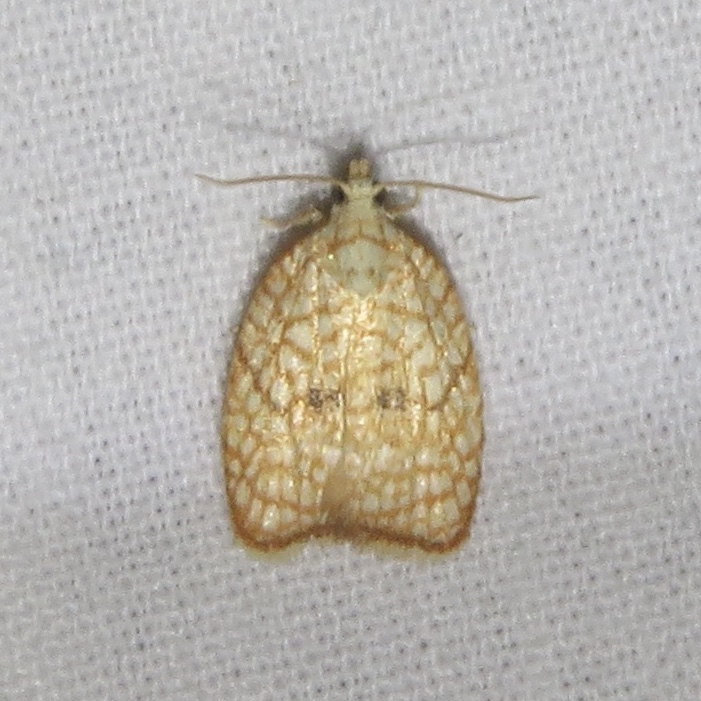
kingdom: Animalia
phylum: Arthropoda
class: Insecta
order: Lepidoptera
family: Tortricidae
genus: Acleris
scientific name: Acleris forsskaleana
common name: Maple button
